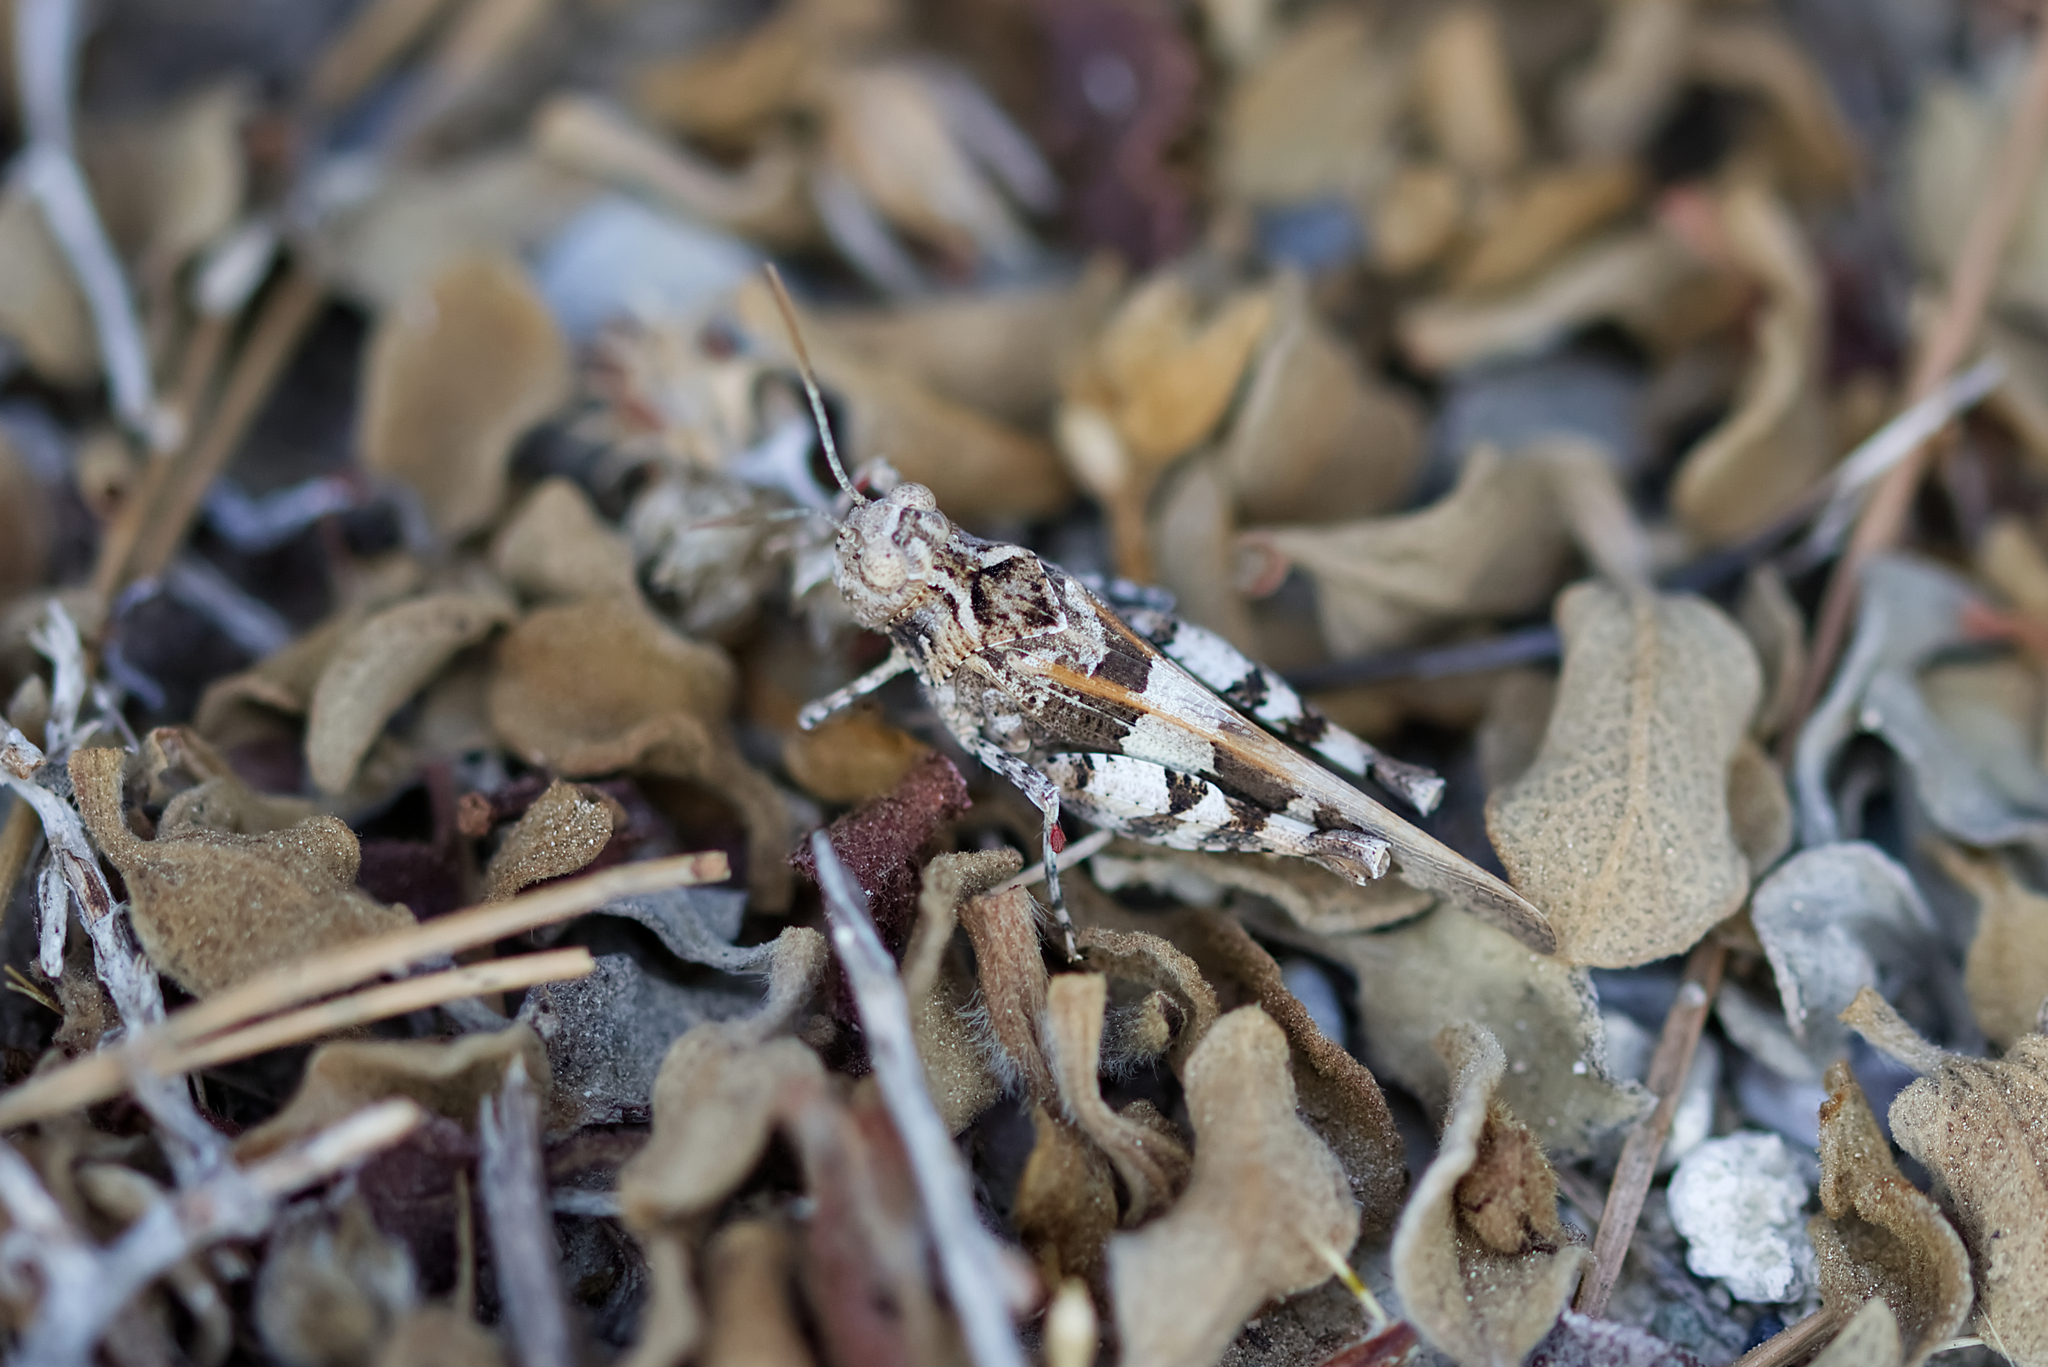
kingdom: Animalia
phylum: Arthropoda
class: Insecta
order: Orthoptera
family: Acrididae
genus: Oedipoda
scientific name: Oedipoda miniata
